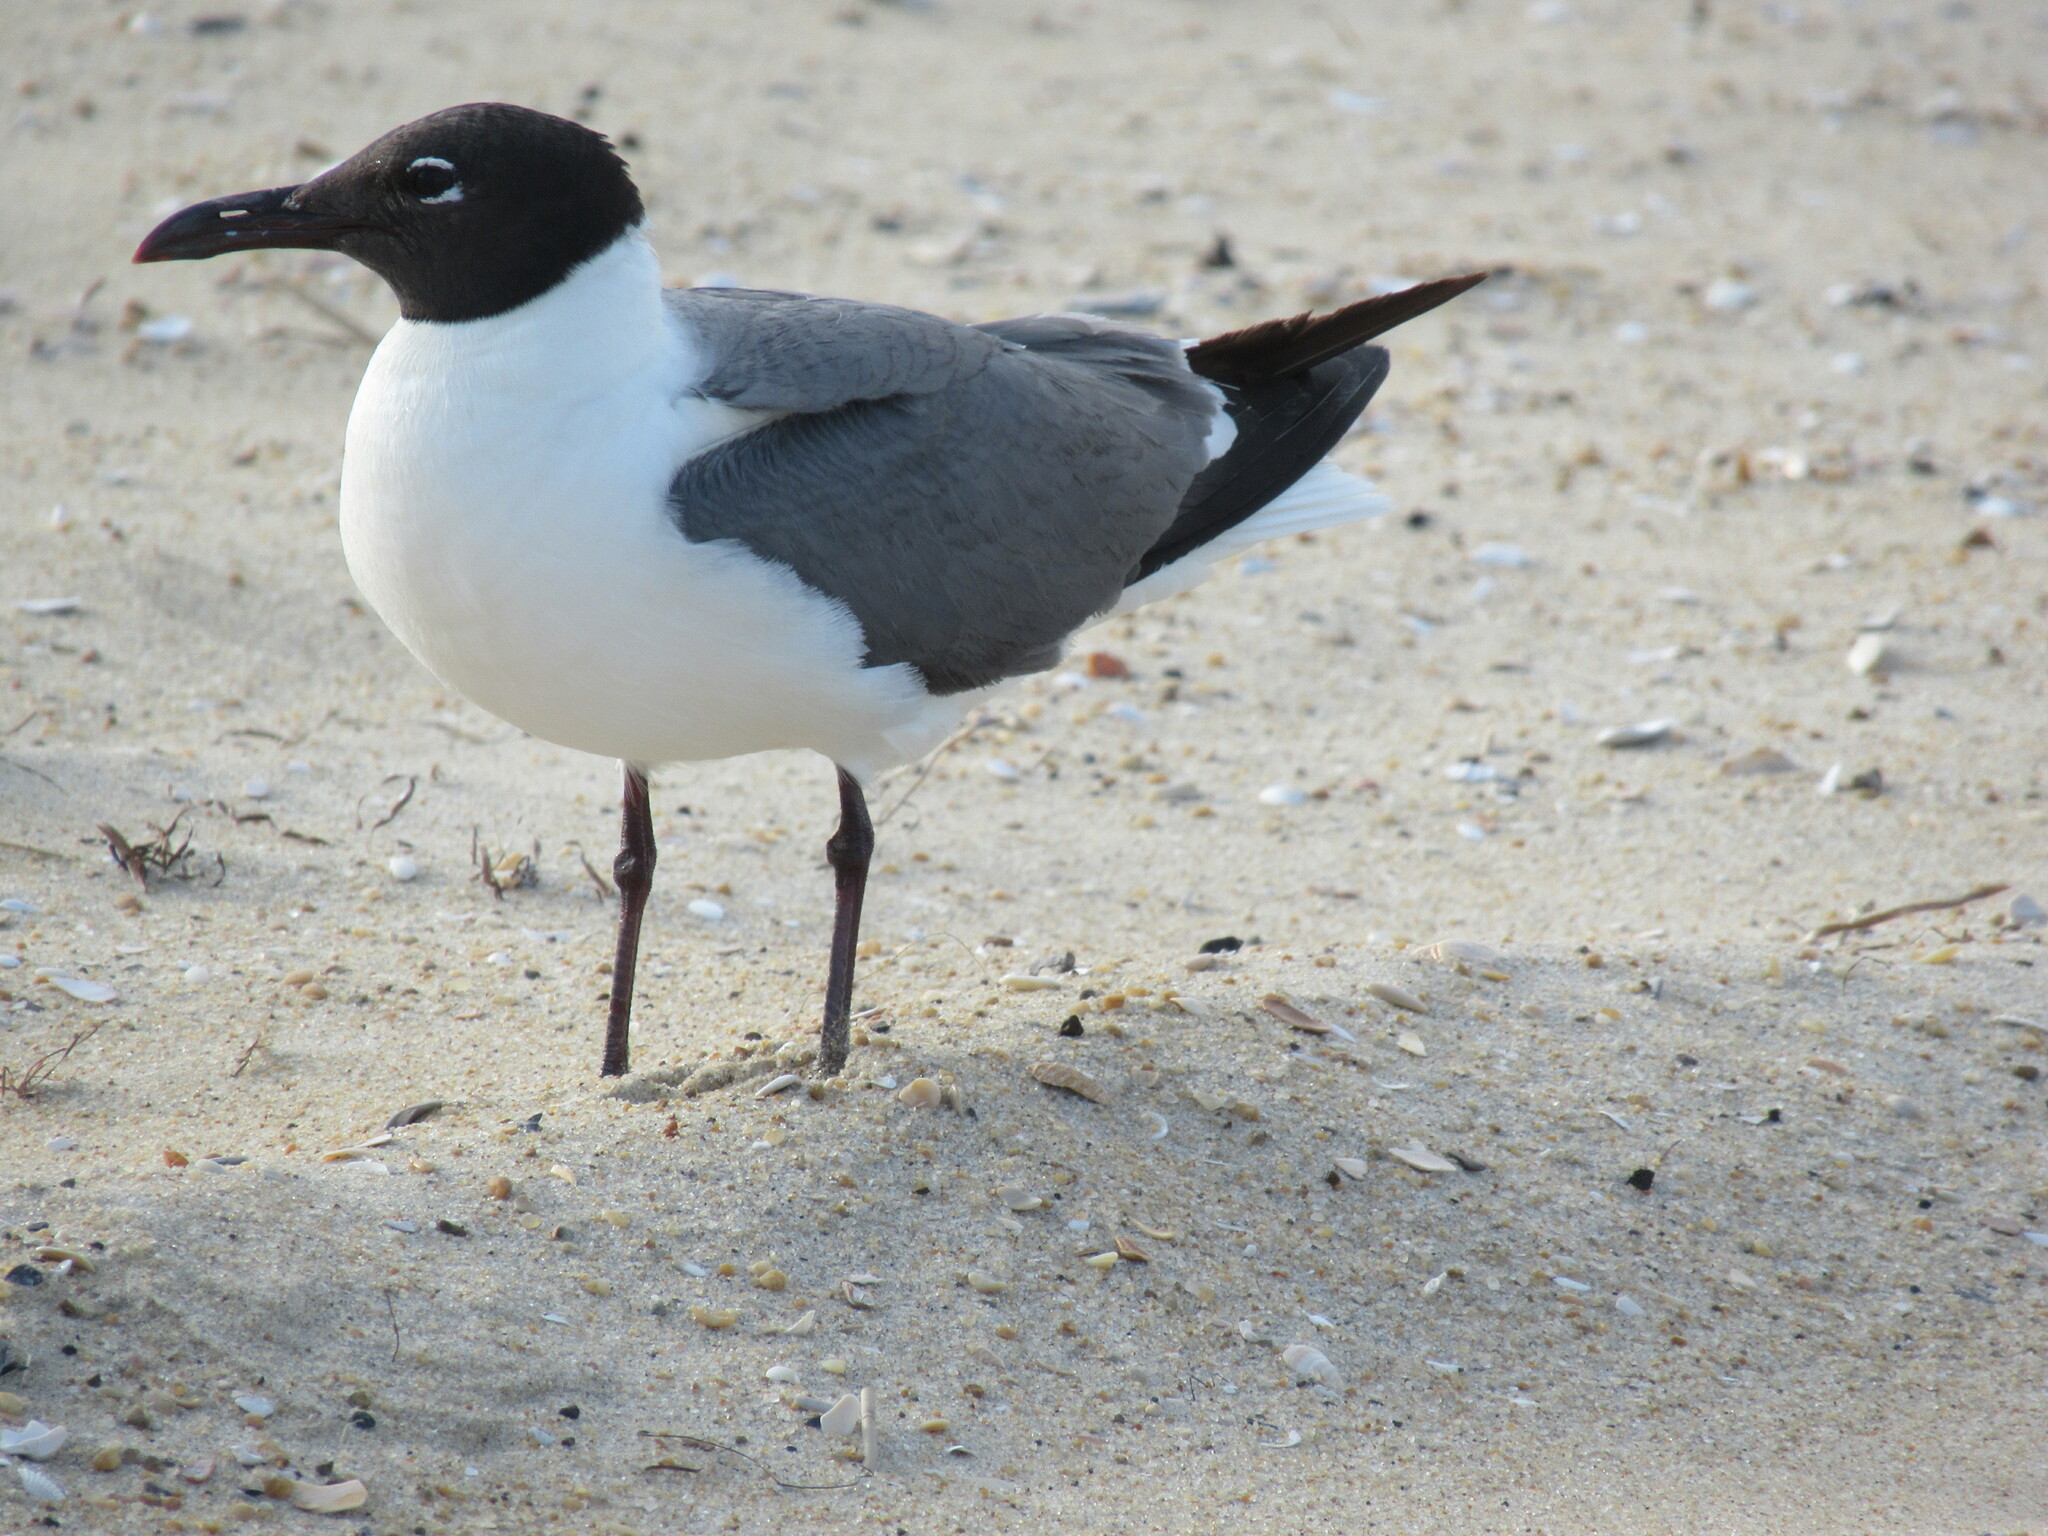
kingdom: Animalia
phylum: Chordata
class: Aves
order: Charadriiformes
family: Laridae
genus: Leucophaeus
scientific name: Leucophaeus atricilla
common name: Laughing gull
